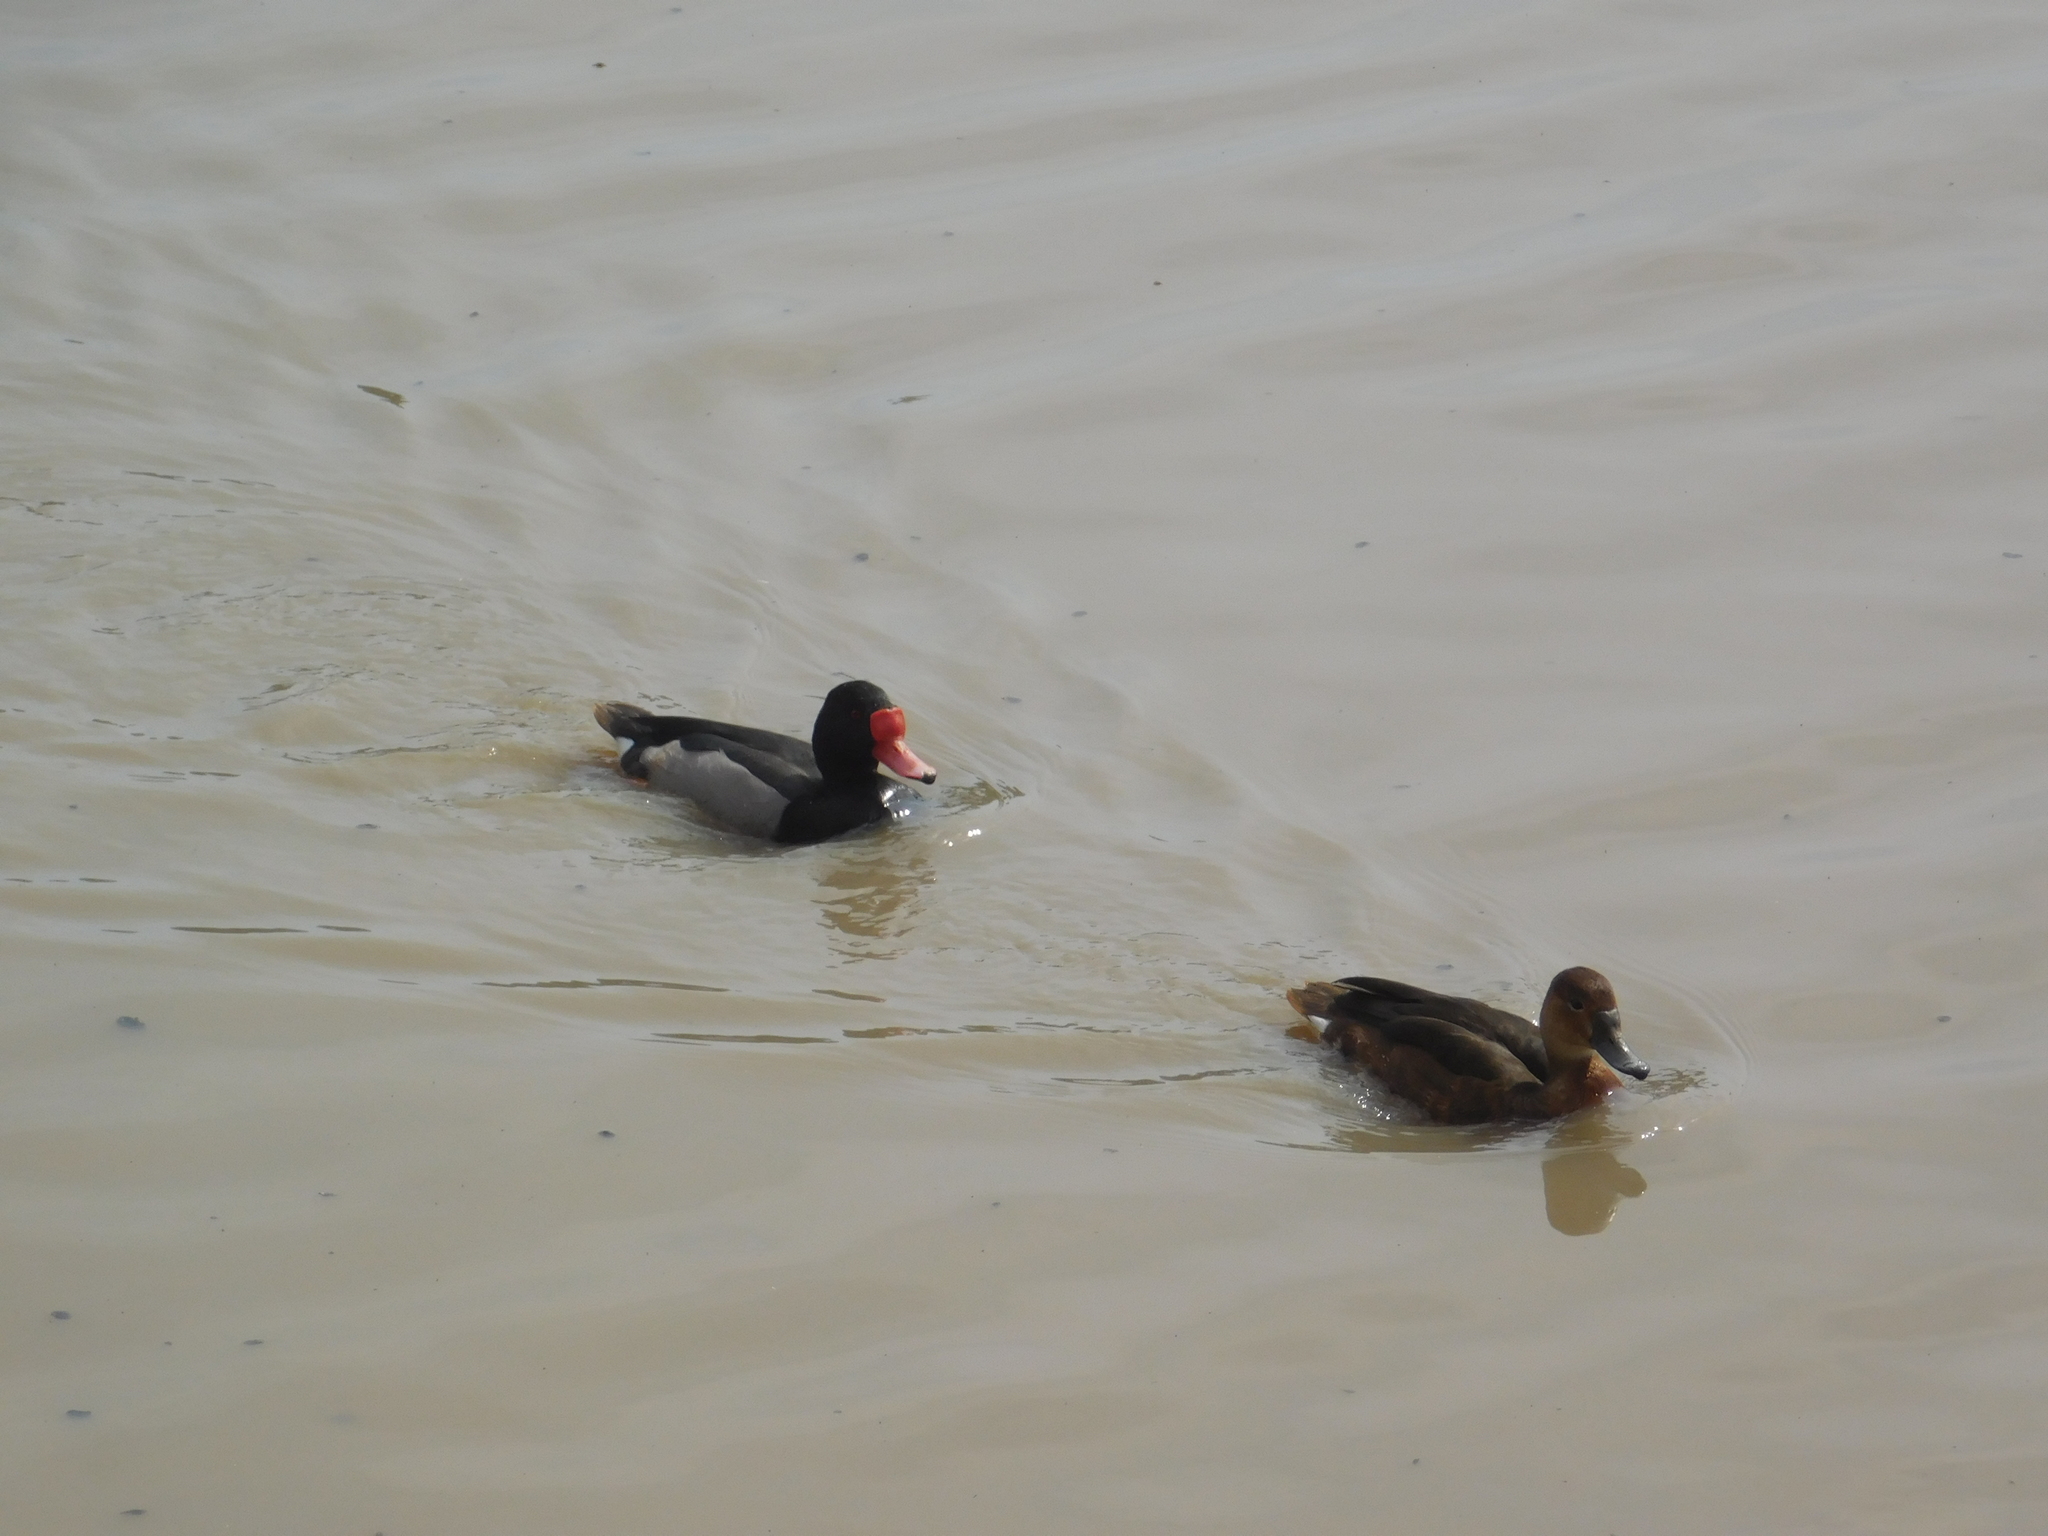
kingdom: Animalia
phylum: Chordata
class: Aves
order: Anseriformes
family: Anatidae
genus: Netta
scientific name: Netta peposaca
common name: Rosy-billed pochard
